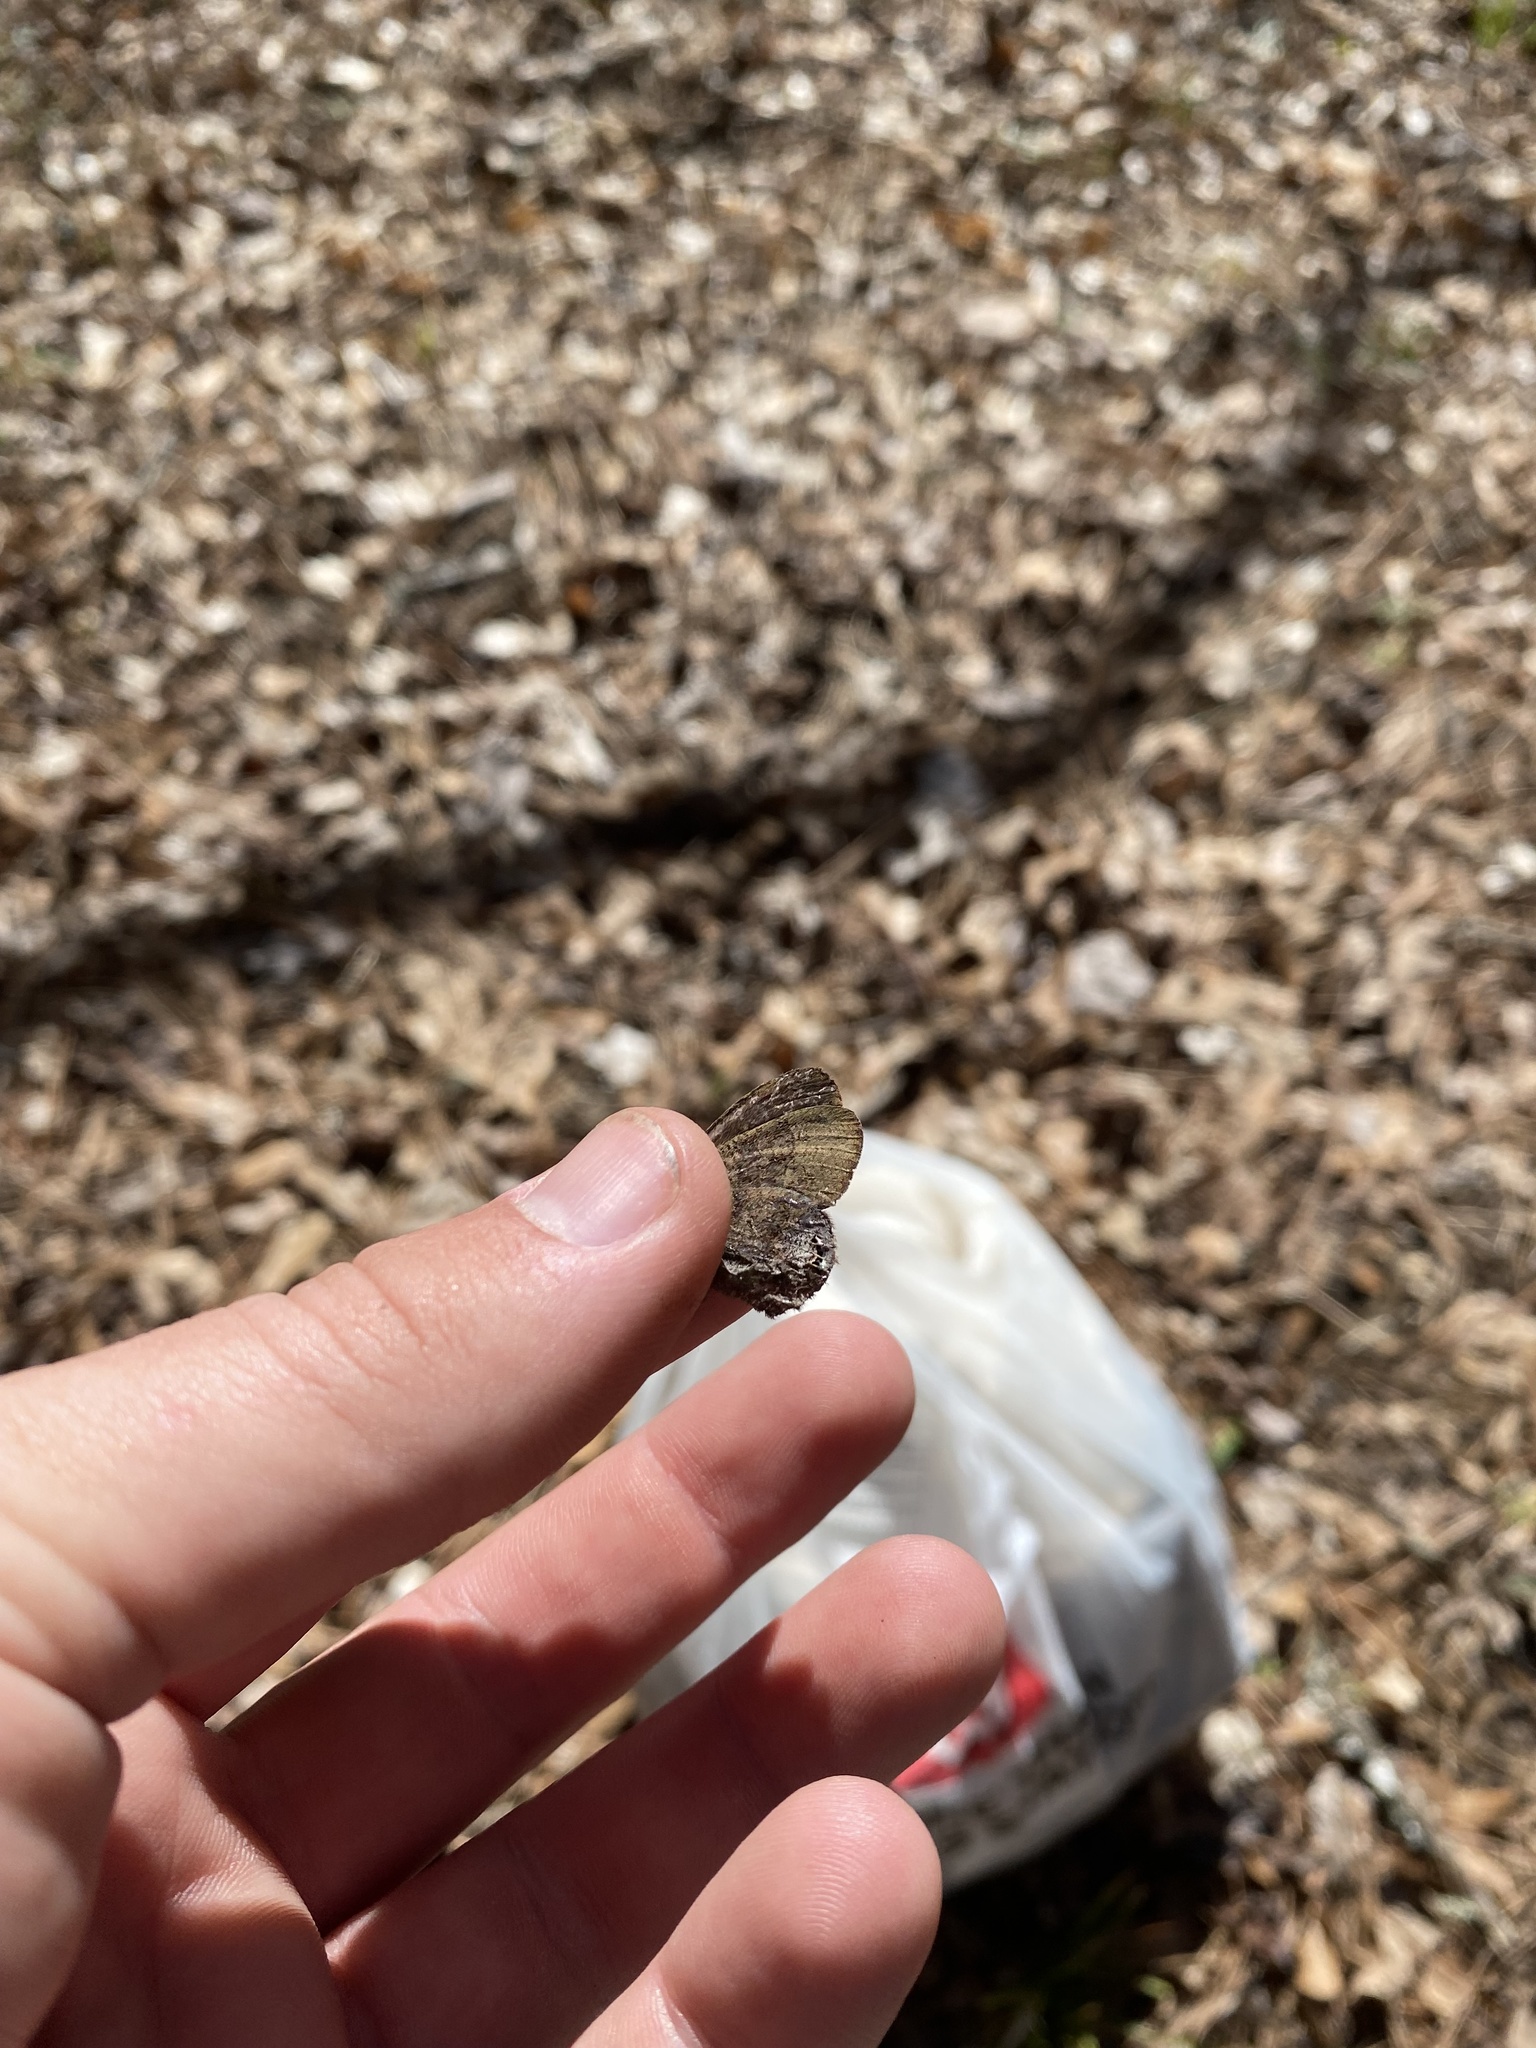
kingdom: Animalia
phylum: Arthropoda
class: Insecta
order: Lepidoptera
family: Nymphalidae
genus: Euptychia
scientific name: Euptychia cornelius
